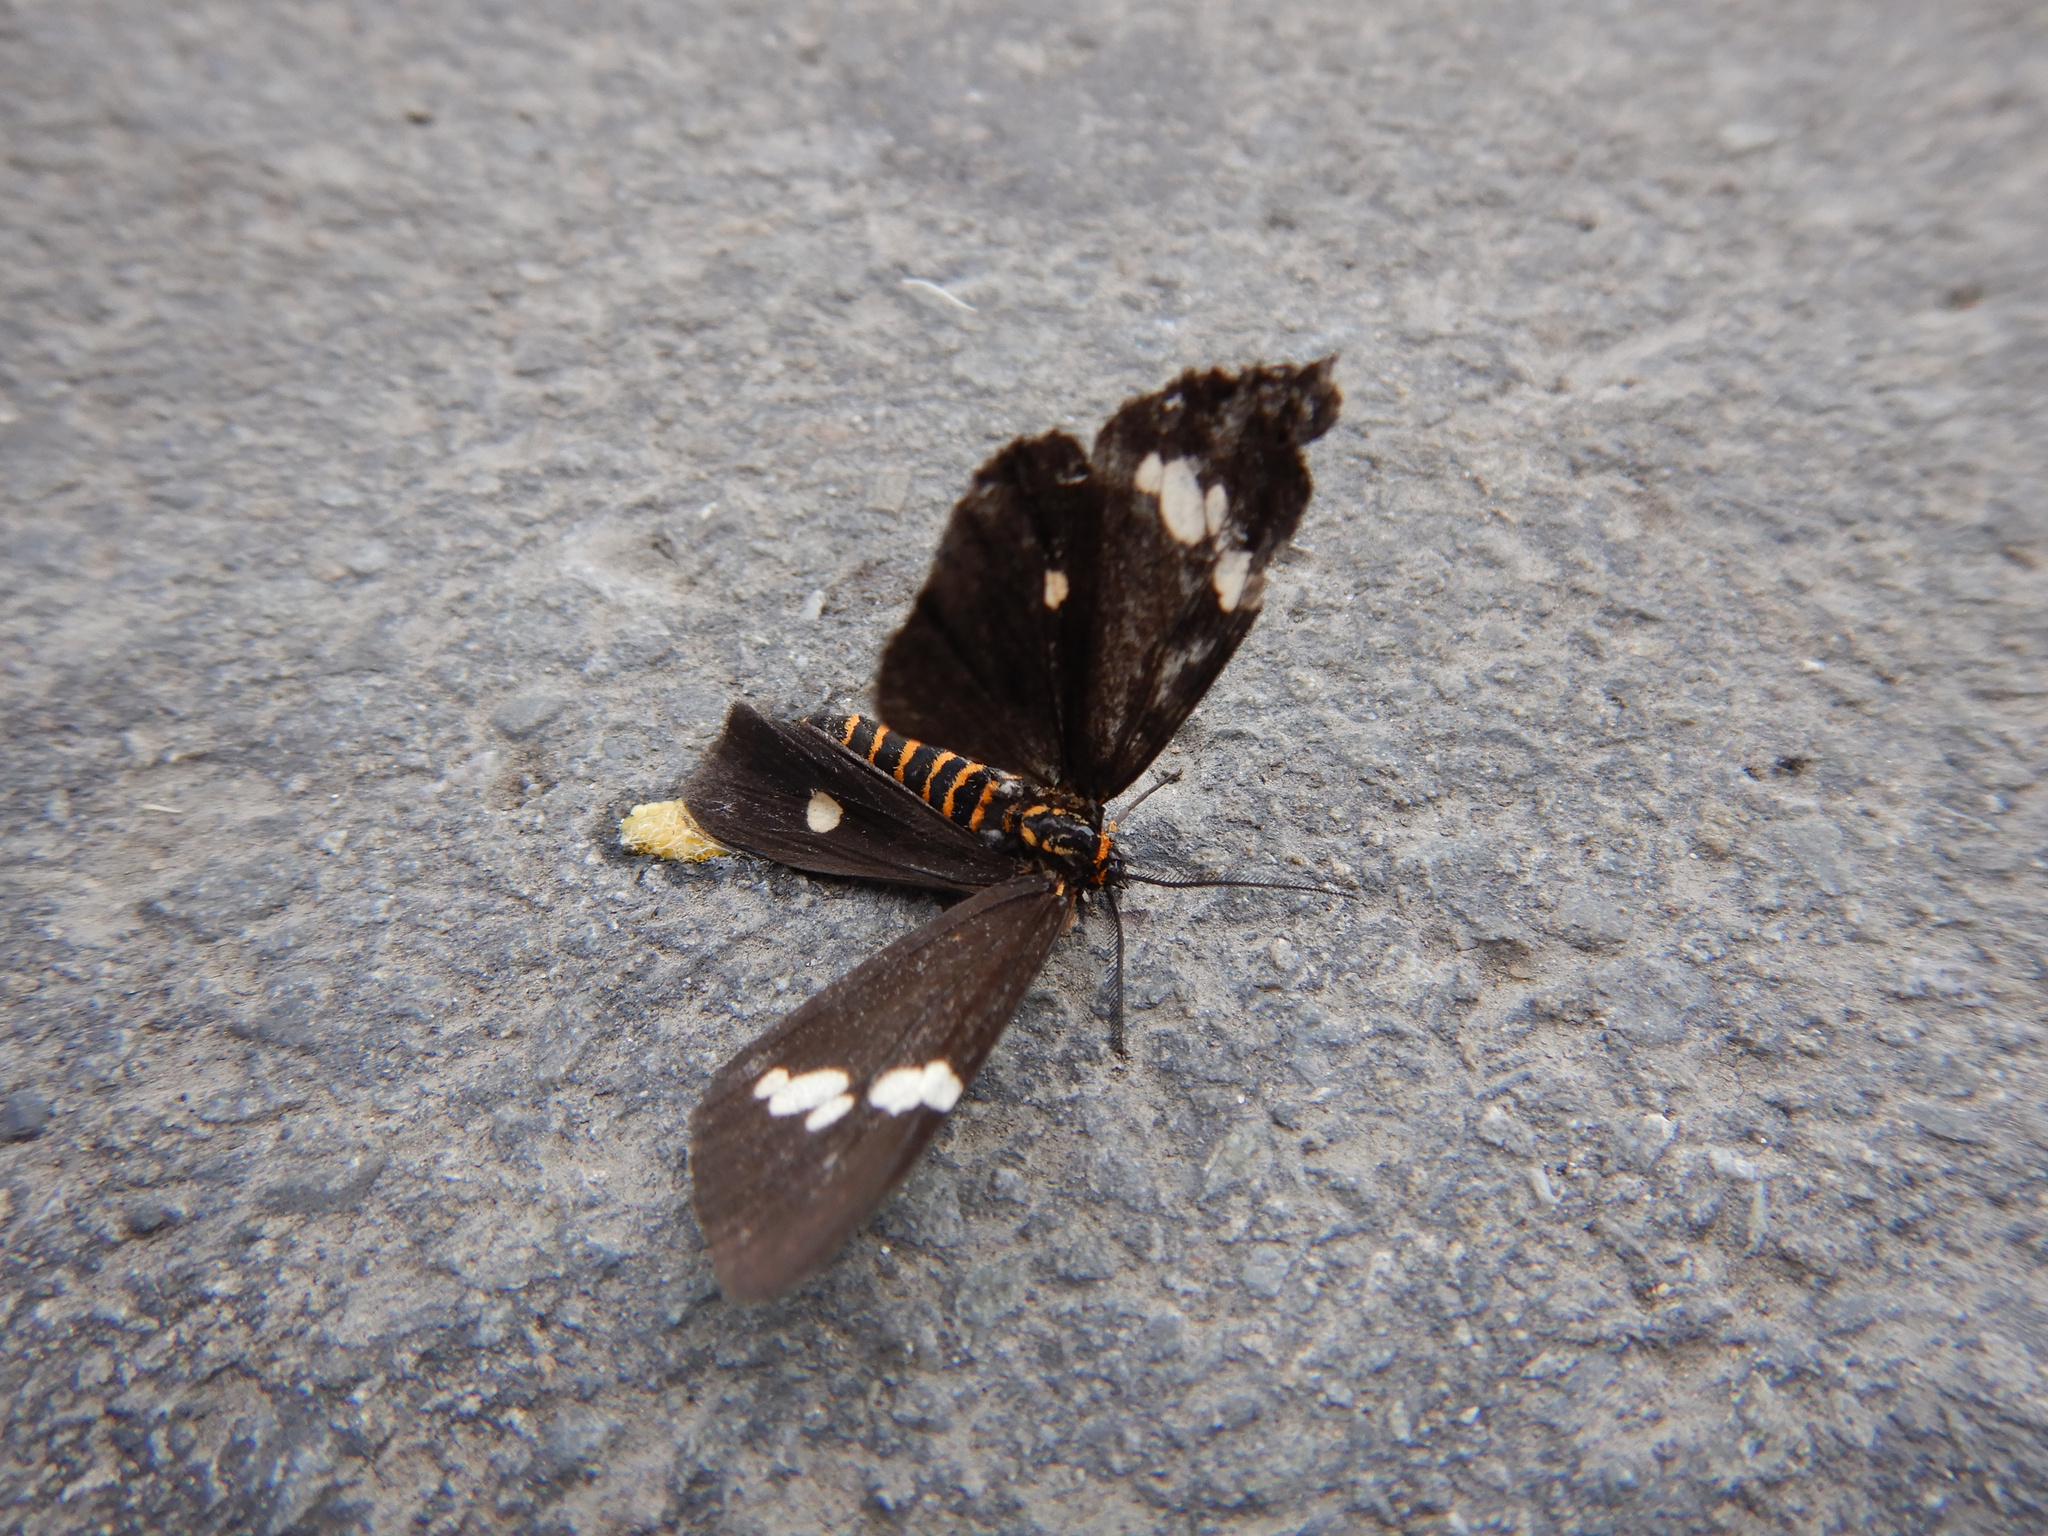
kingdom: Animalia
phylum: Arthropoda
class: Insecta
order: Lepidoptera
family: Erebidae
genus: Nyctemera
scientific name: Nyctemera annulatum
